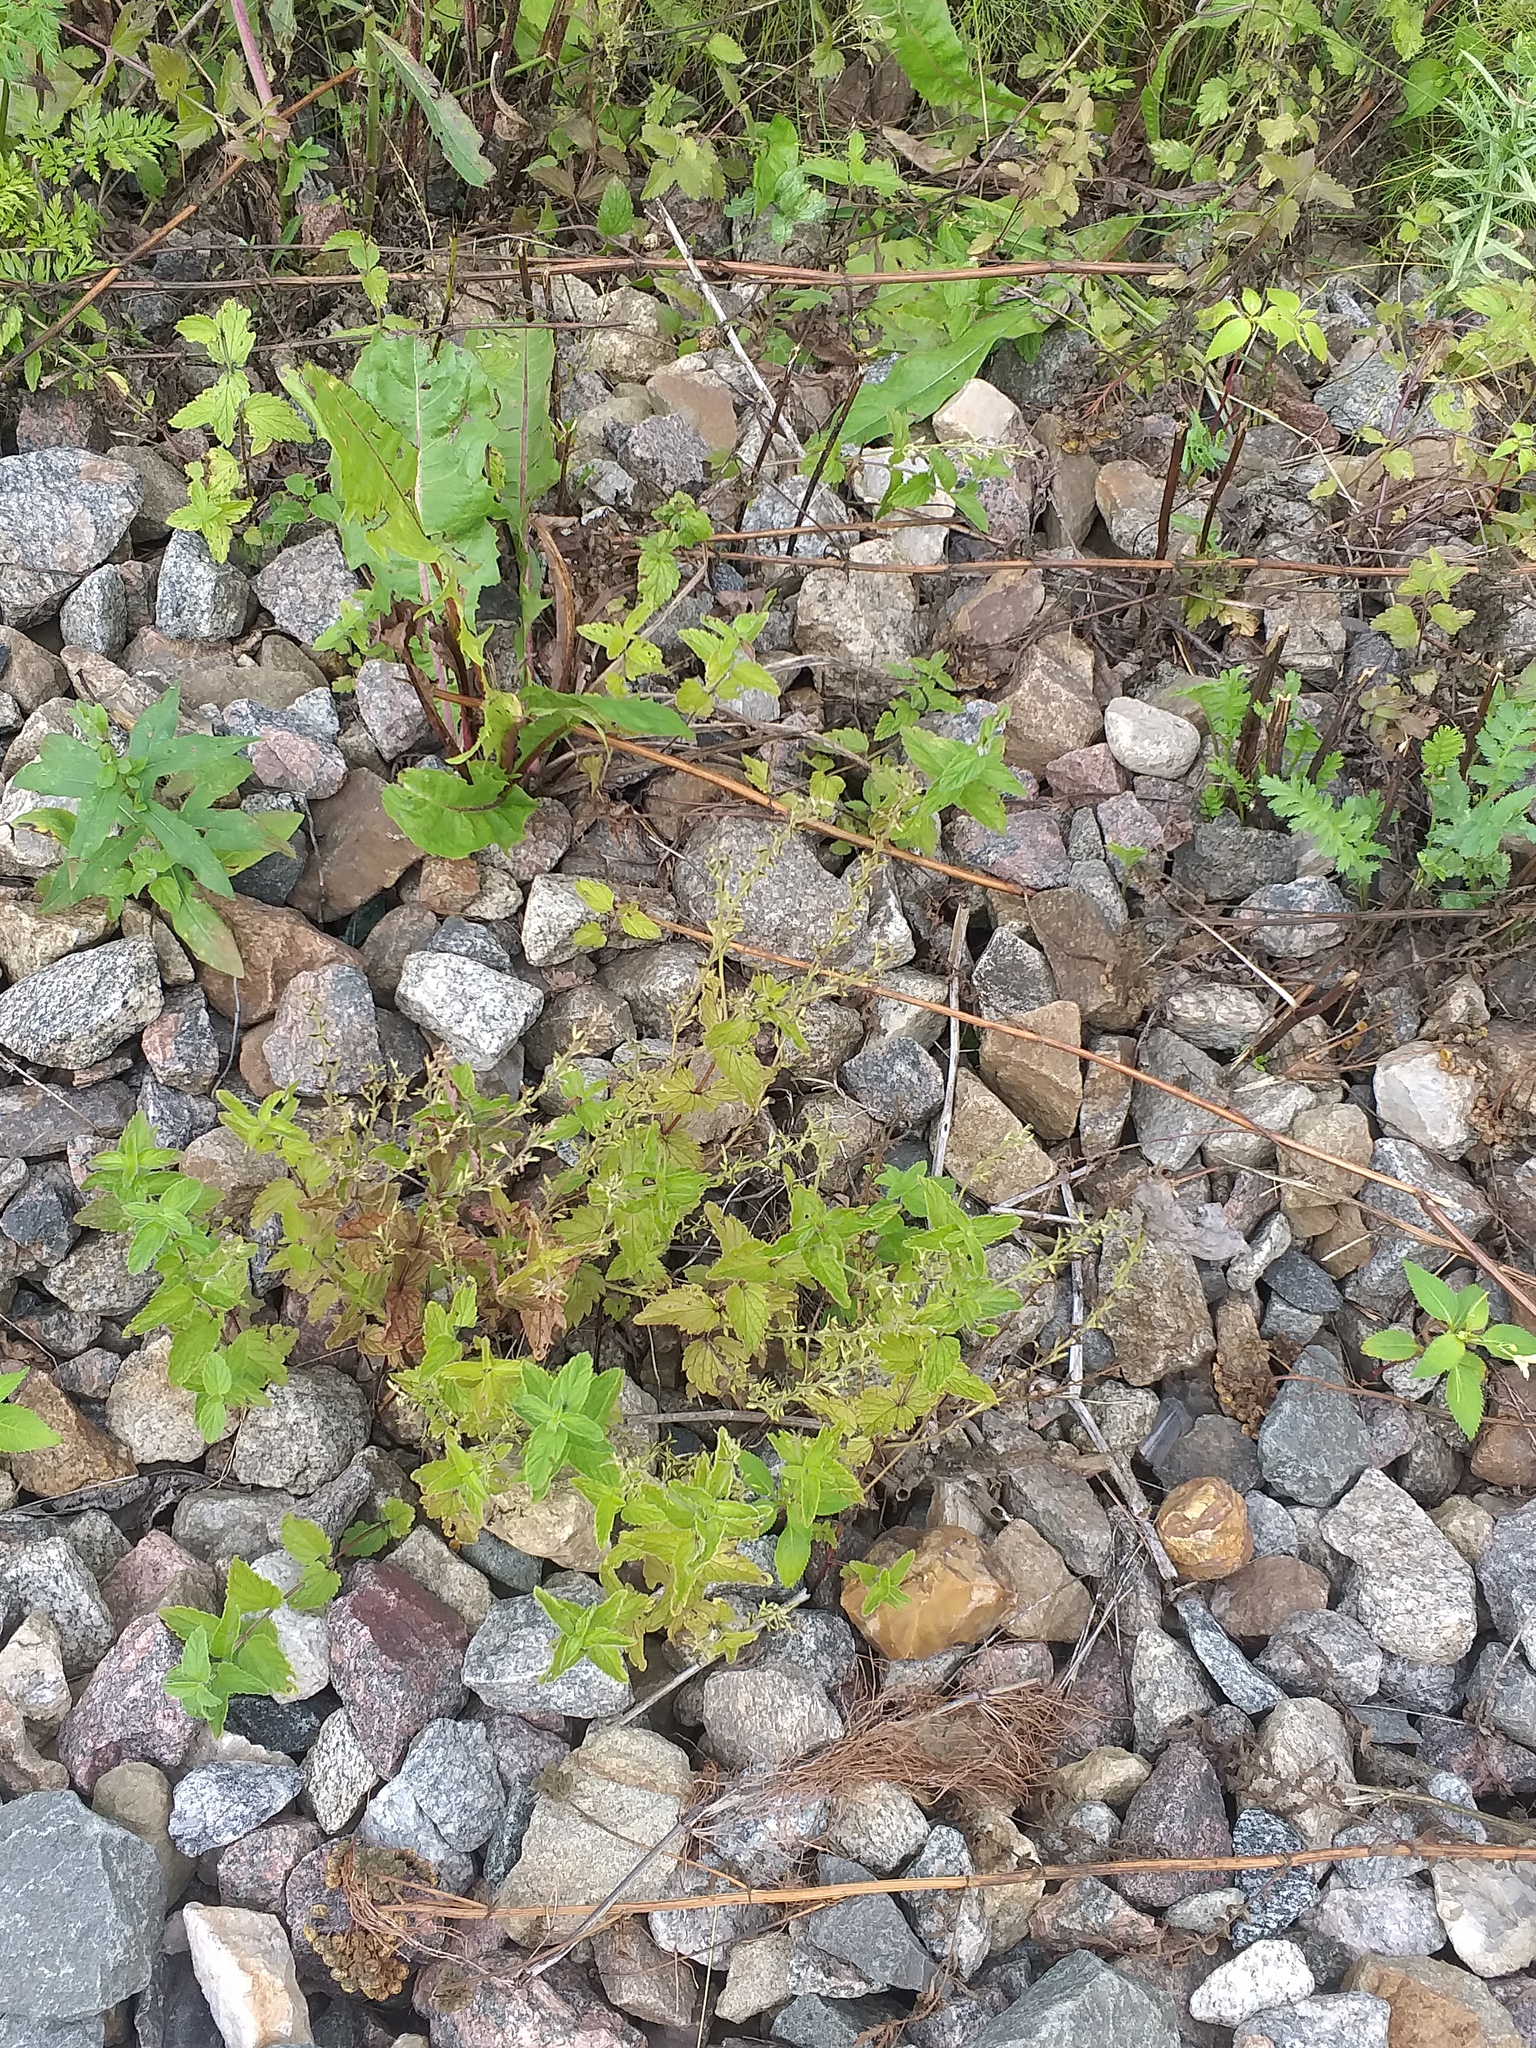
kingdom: Plantae
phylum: Tracheophyta
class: Magnoliopsida
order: Lamiales
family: Plantaginaceae
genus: Veronica
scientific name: Veronica chamaedrys
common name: Germander speedwell
